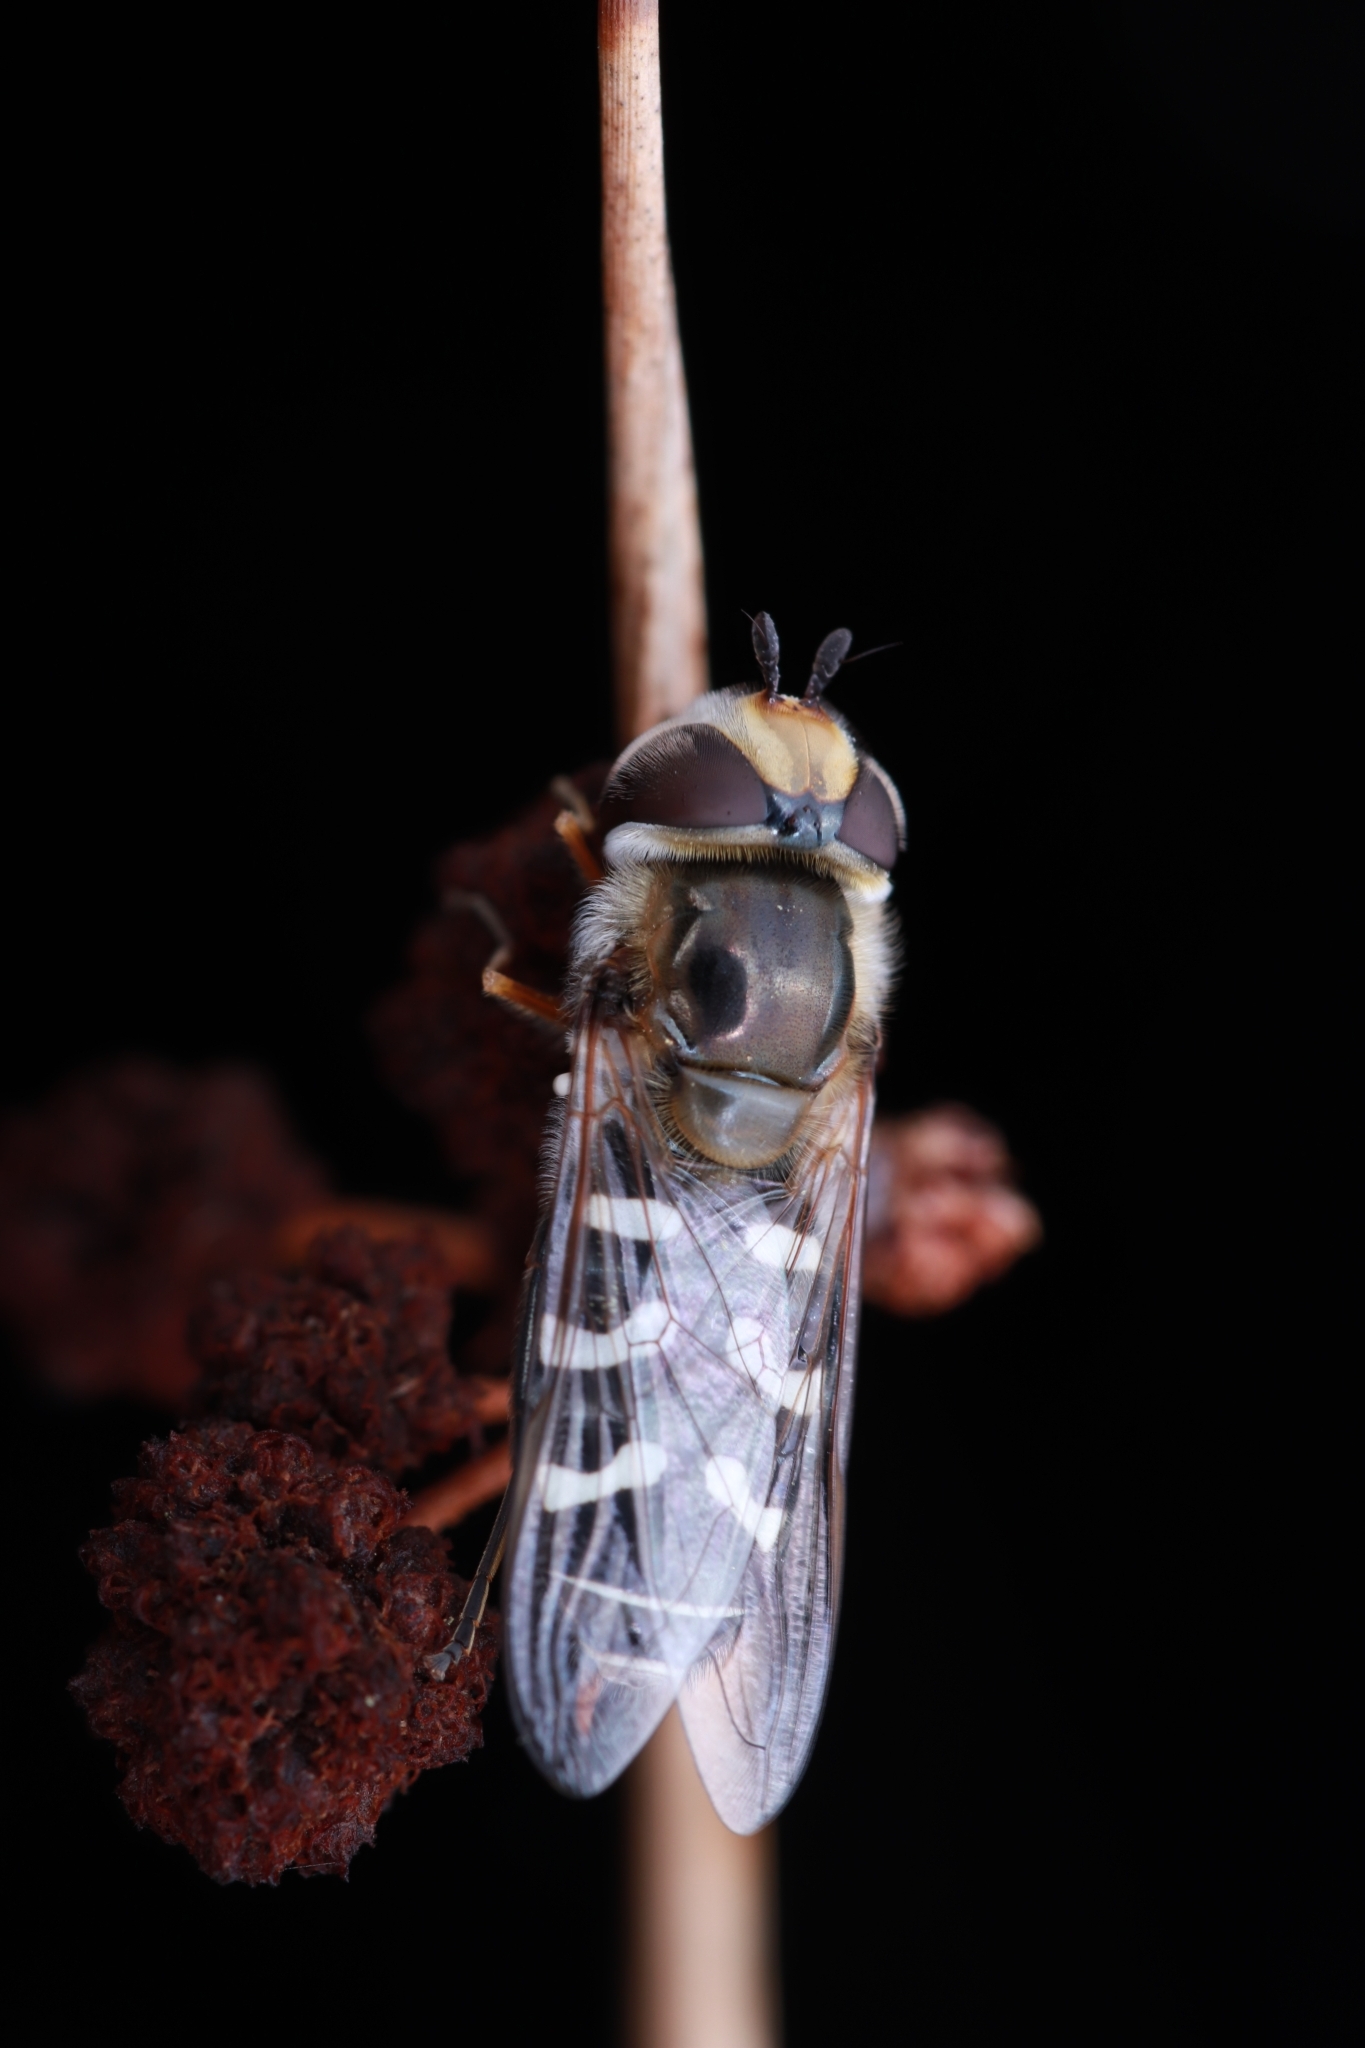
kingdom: Animalia
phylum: Arthropoda
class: Insecta
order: Diptera
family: Syrphidae
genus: Scaeva
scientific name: Scaeva pyrastri
